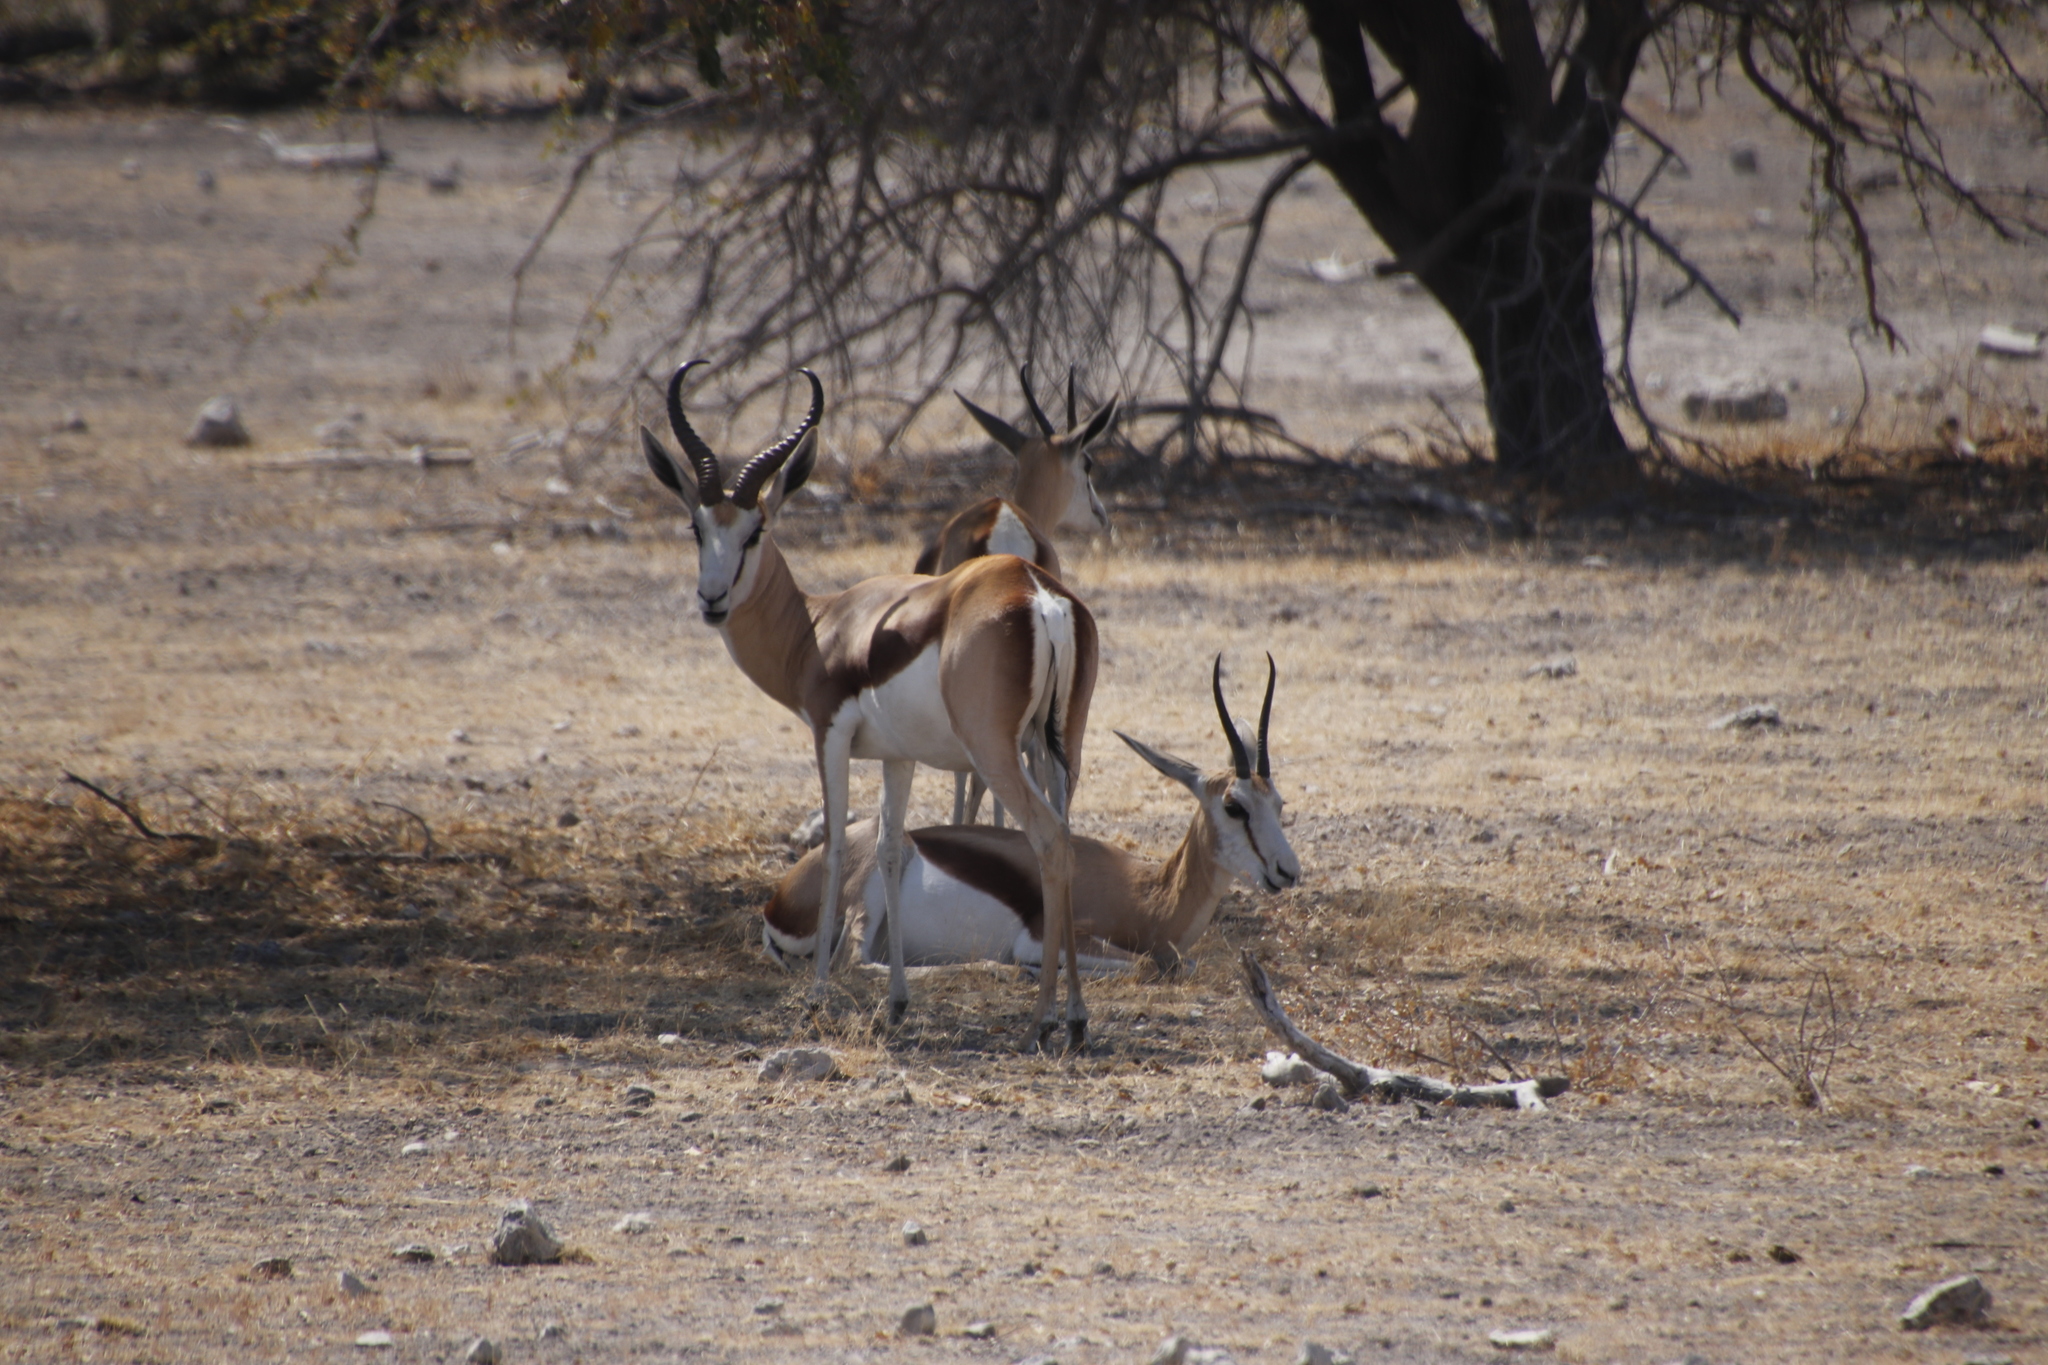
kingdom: Animalia
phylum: Chordata
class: Mammalia
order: Artiodactyla
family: Bovidae
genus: Antidorcas
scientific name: Antidorcas marsupialis
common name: Springbok
